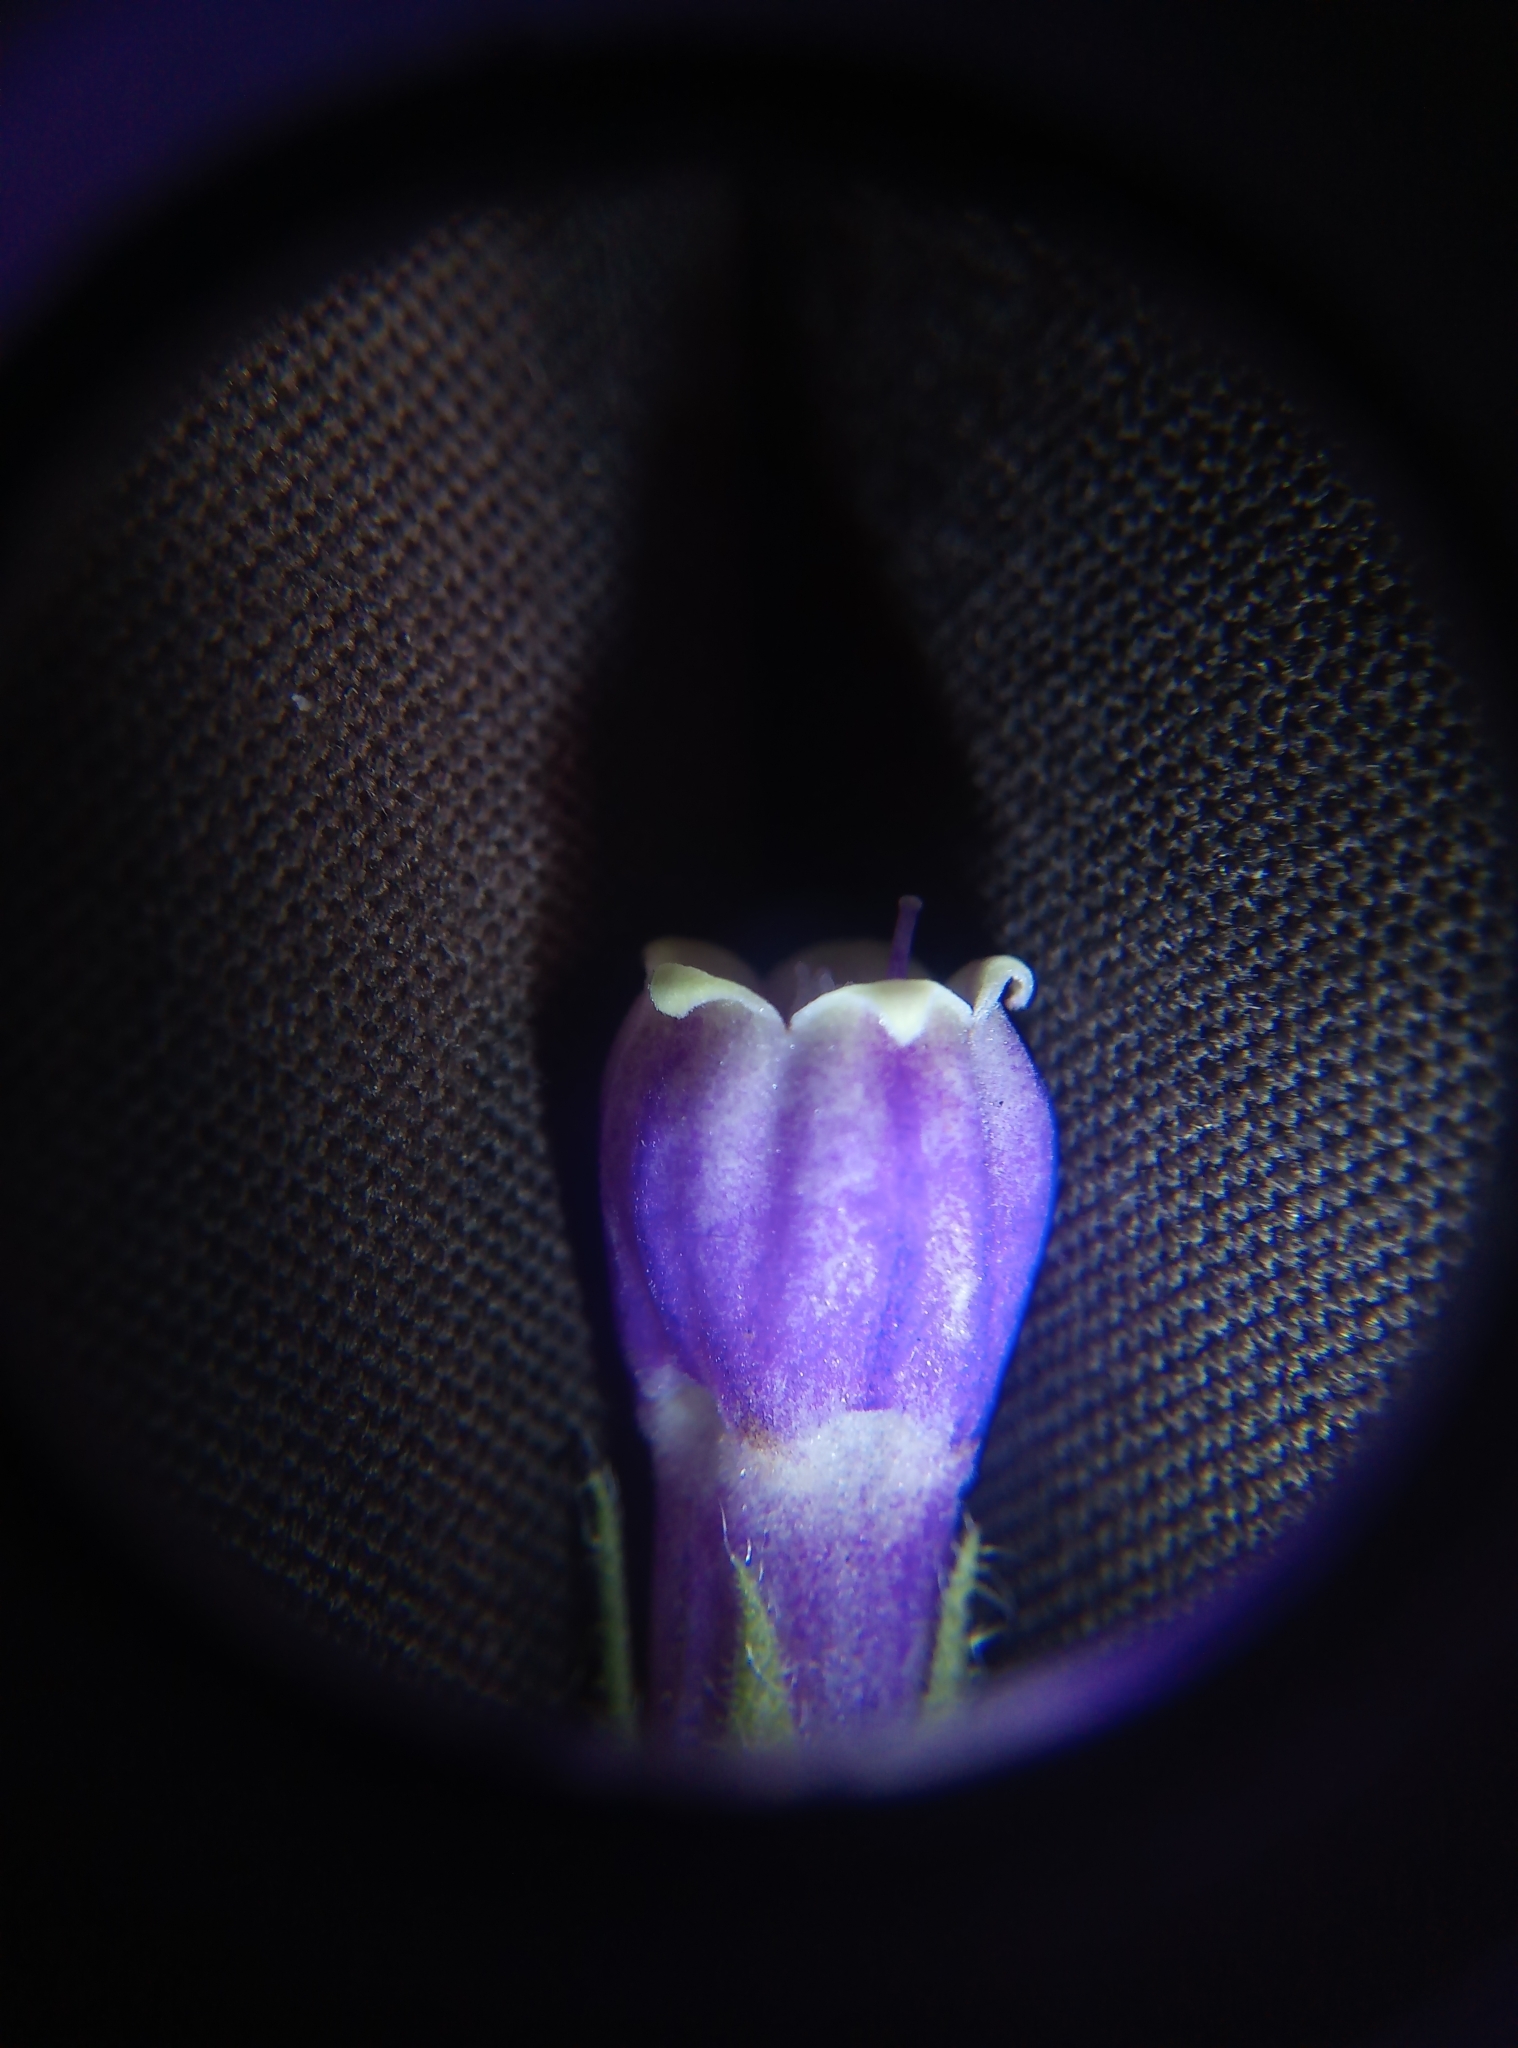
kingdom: Plantae
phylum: Tracheophyta
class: Magnoliopsida
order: Boraginales
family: Boraginaceae
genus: Symphytum
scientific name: Symphytum officinale
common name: Common comfrey
